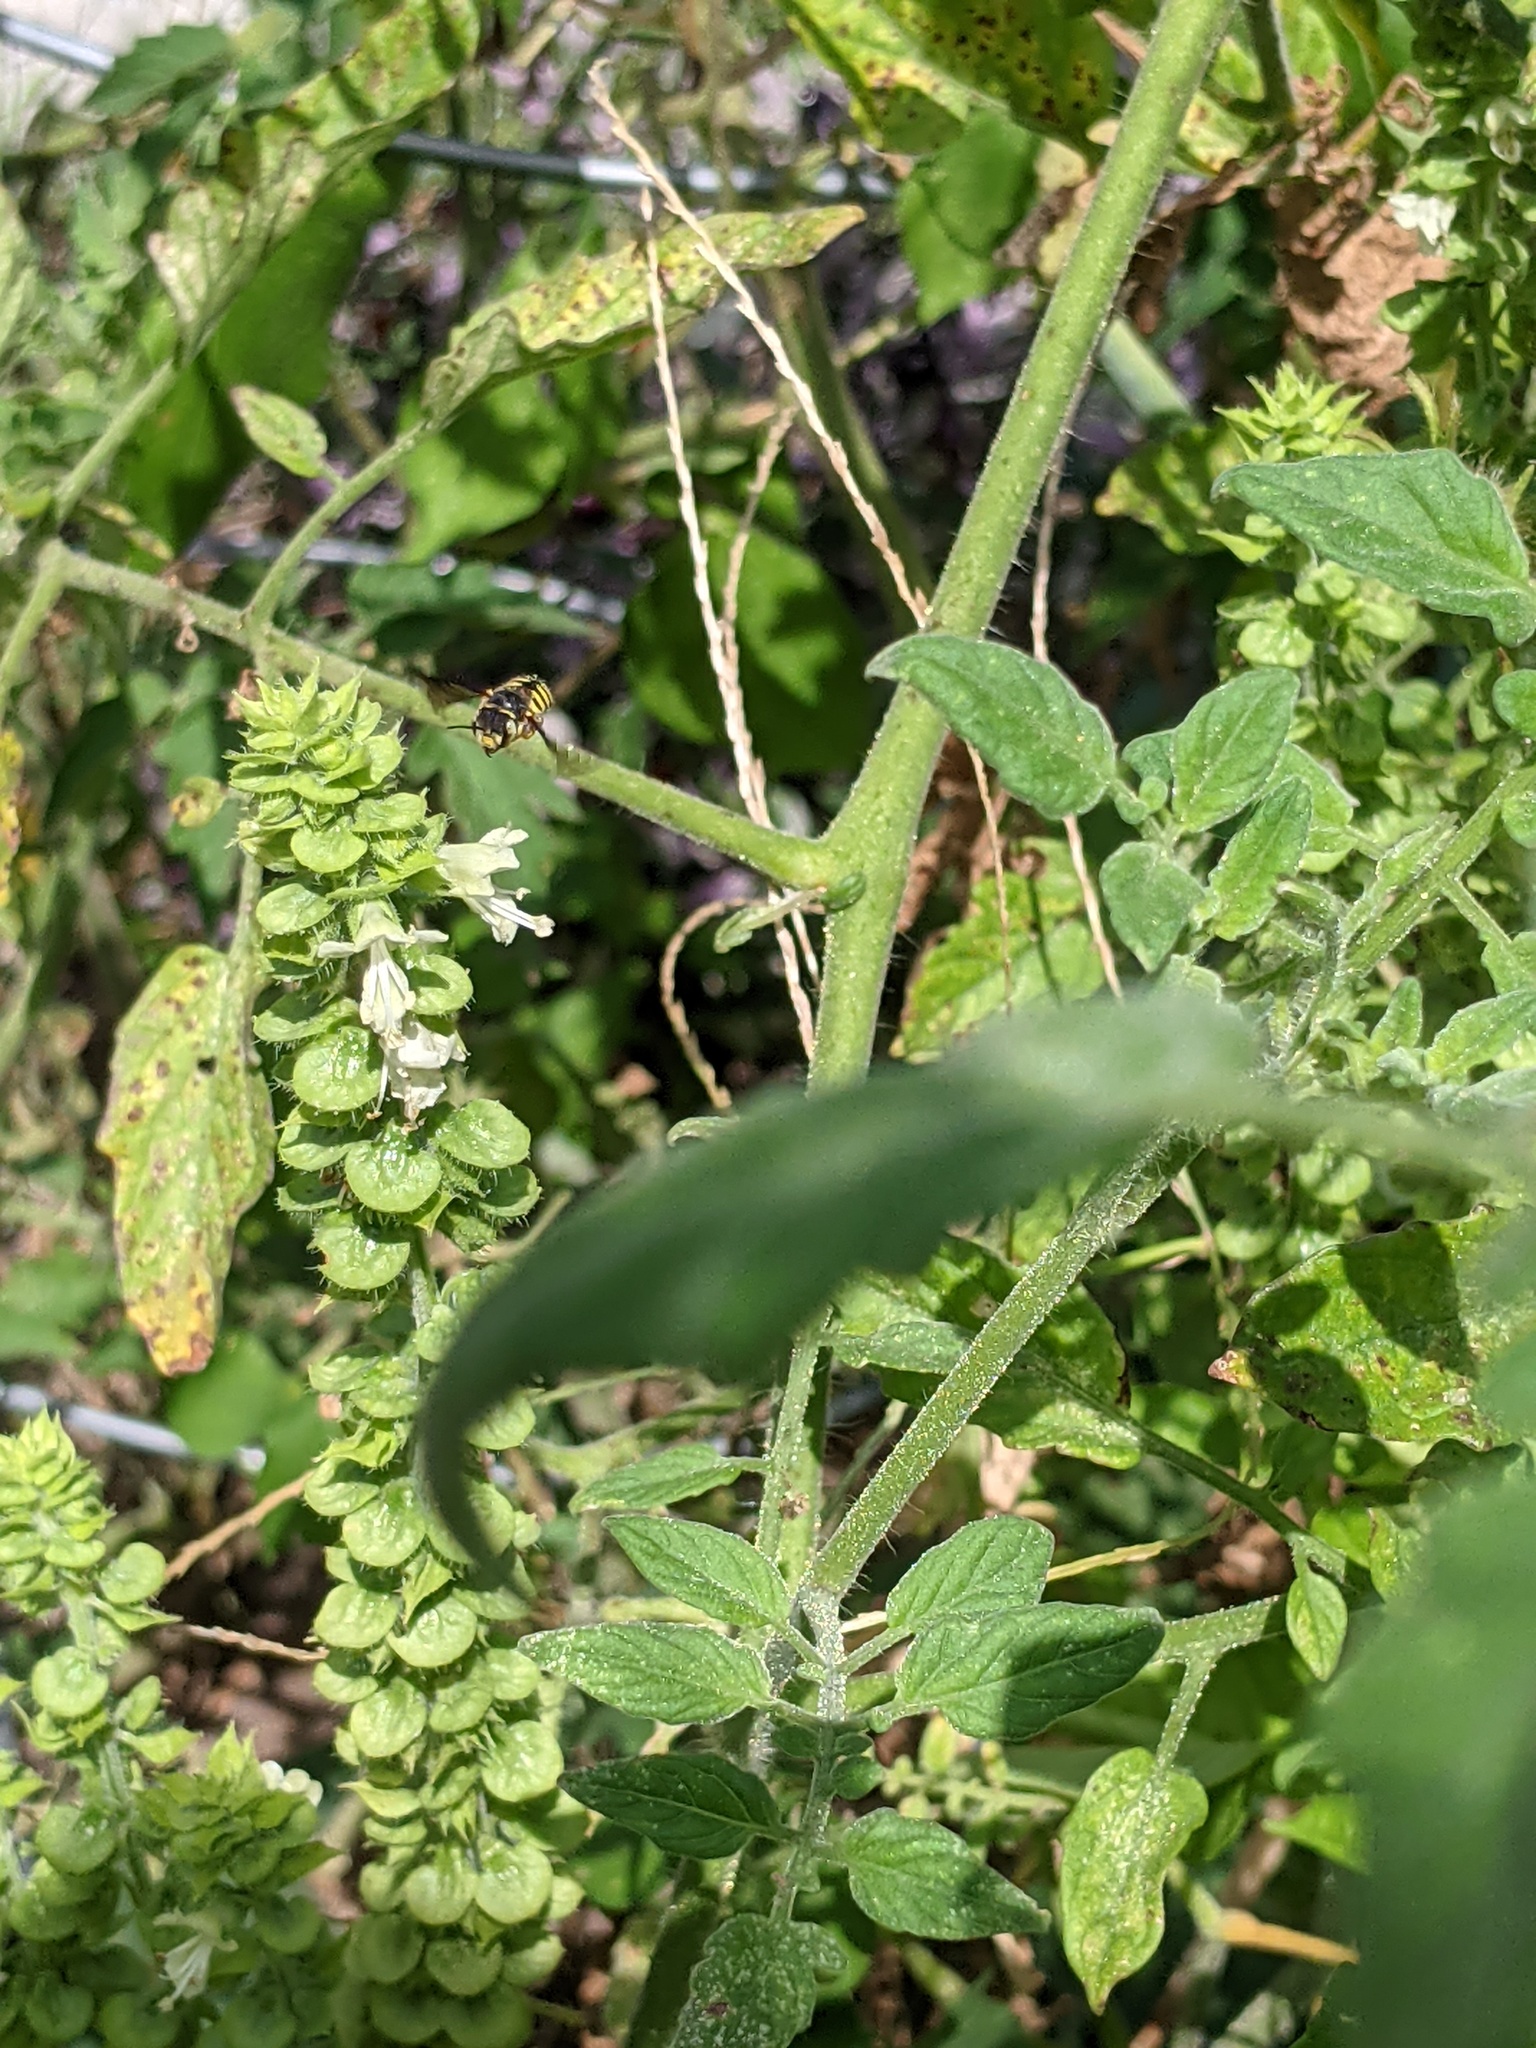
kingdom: Animalia
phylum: Arthropoda
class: Insecta
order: Hymenoptera
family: Megachilidae
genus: Anthidium
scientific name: Anthidium oblongatum
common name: Oblong wool carder bee
